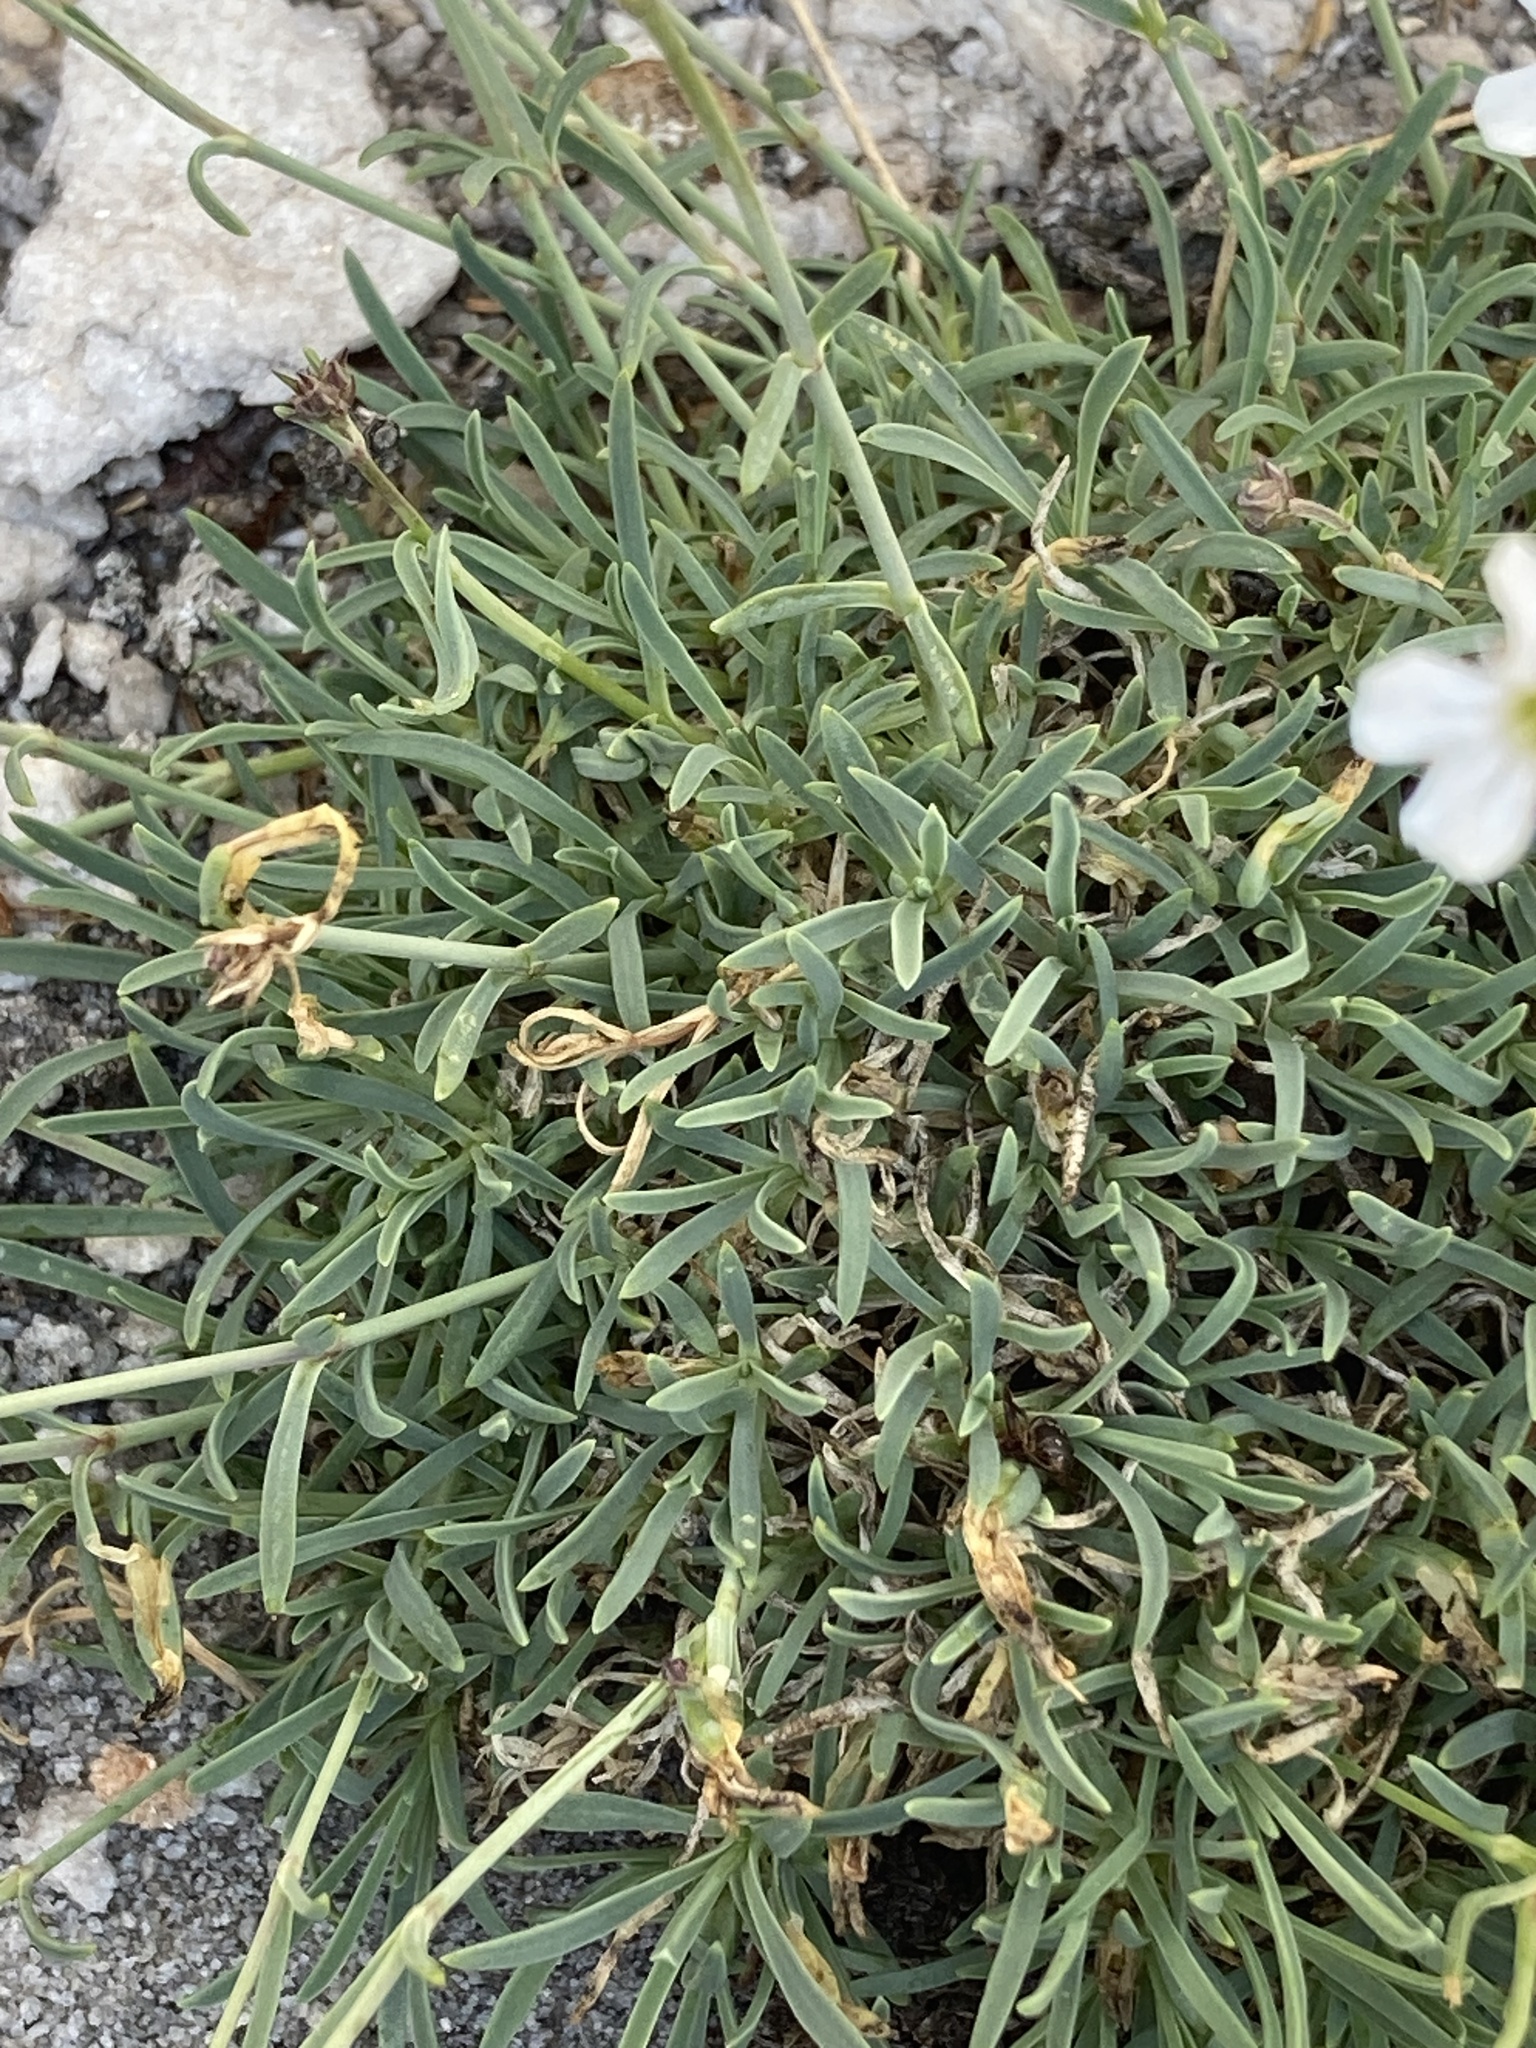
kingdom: Plantae
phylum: Tracheophyta
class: Magnoliopsida
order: Caryophyllales
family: Caryophyllaceae
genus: Gypsophila
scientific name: Gypsophila uralensis
